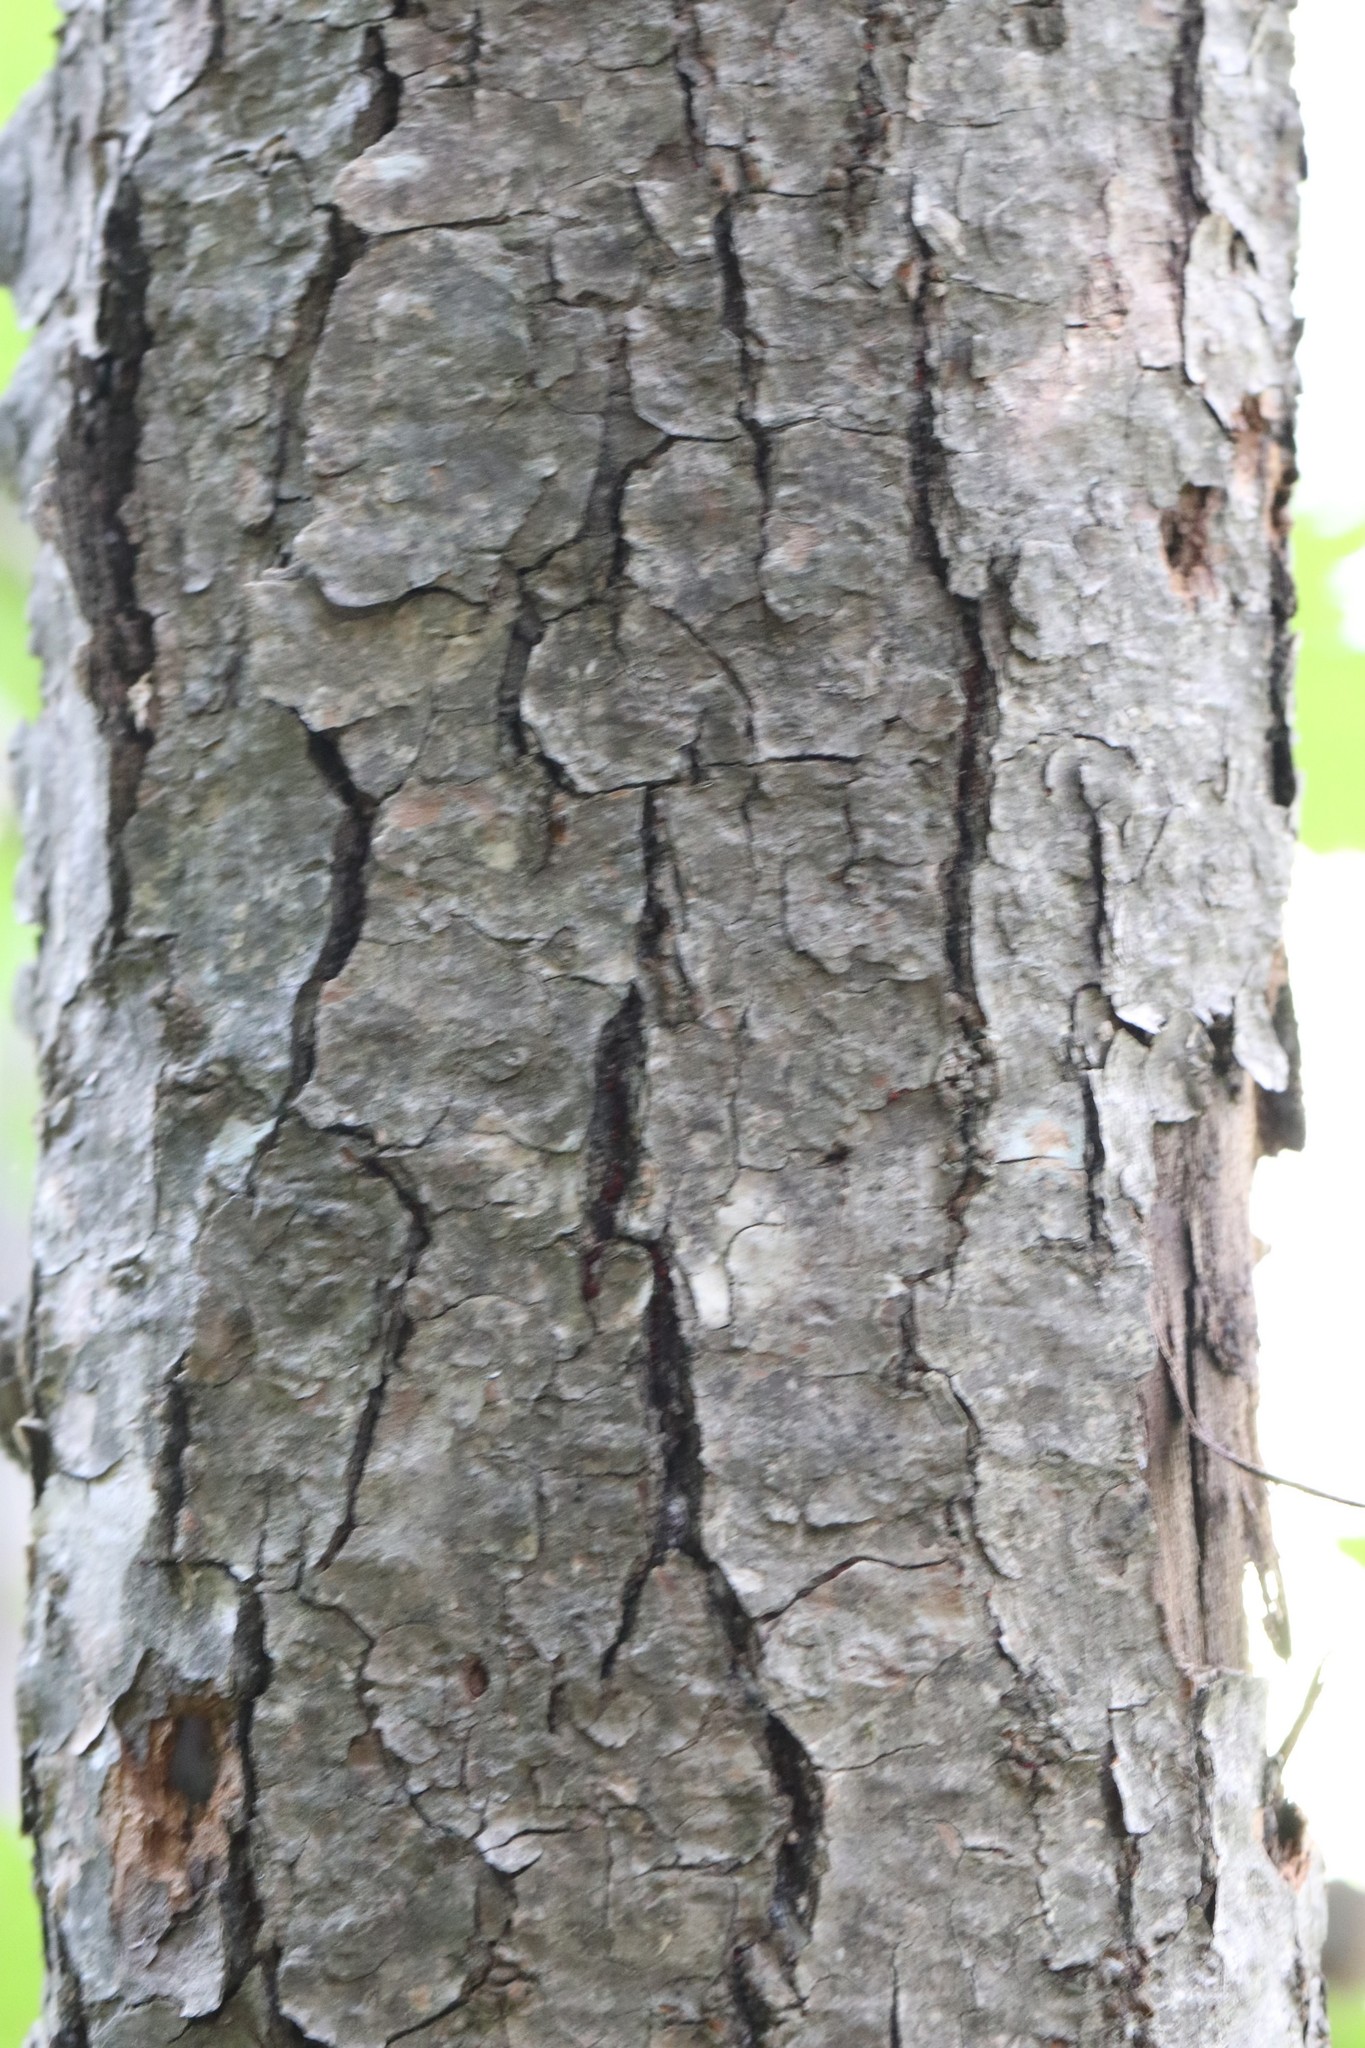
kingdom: Plantae
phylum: Tracheophyta
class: Magnoliopsida
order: Sapindales
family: Sapindaceae
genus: Acer
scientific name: Acer ukurunduense
